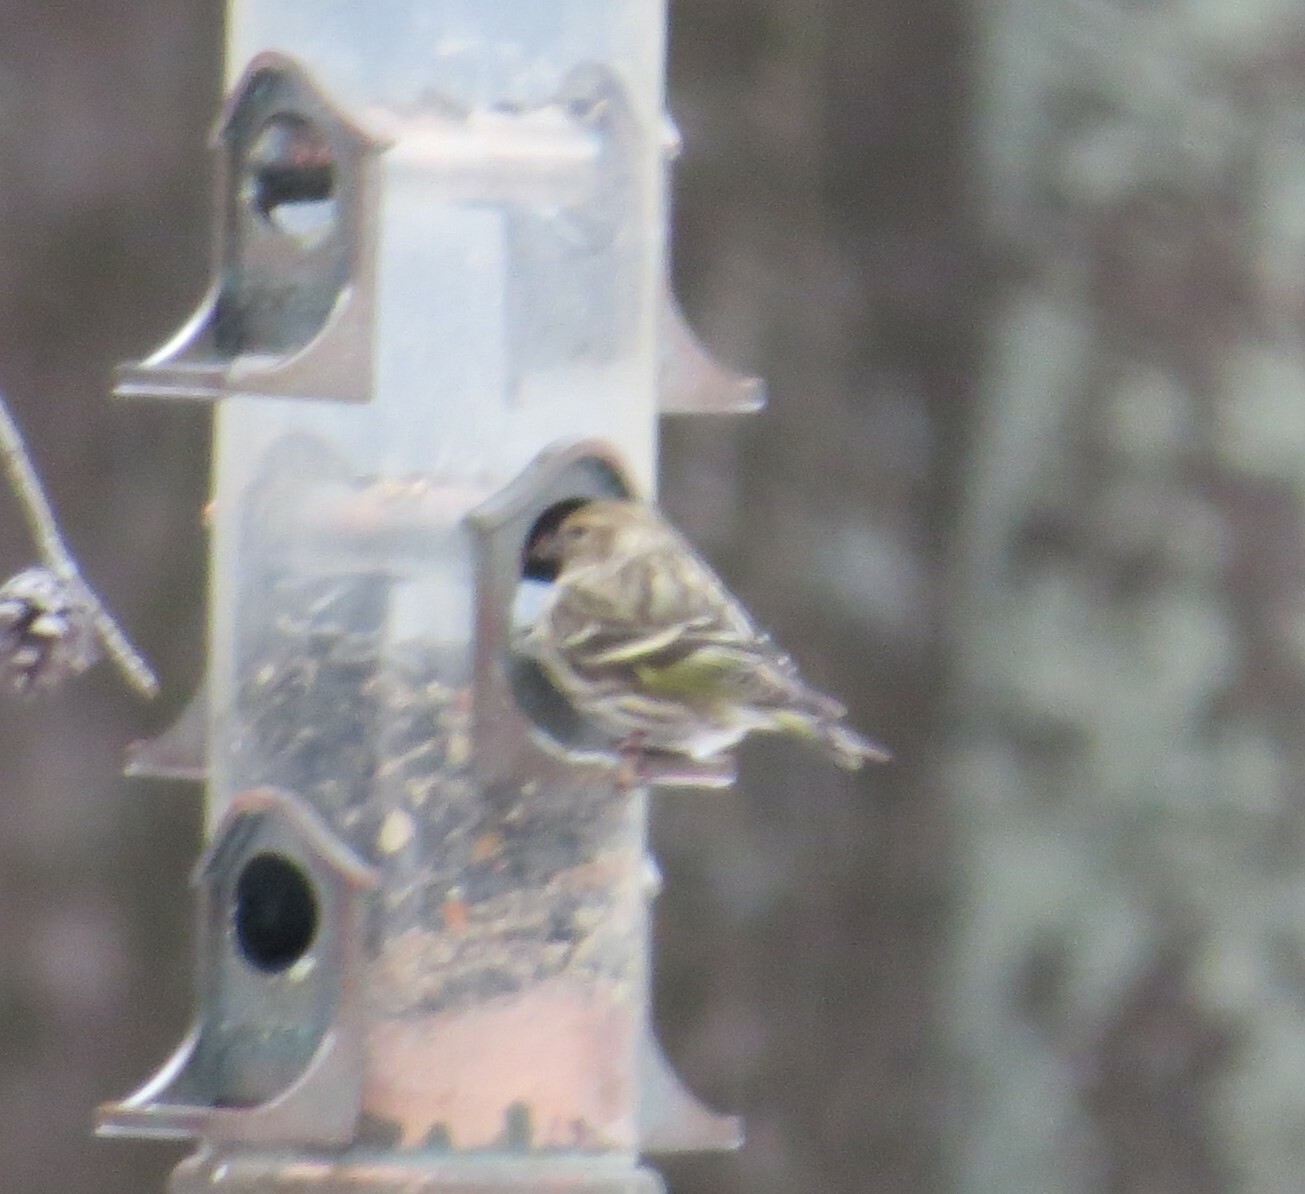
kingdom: Animalia
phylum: Chordata
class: Aves
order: Passeriformes
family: Fringillidae
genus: Spinus
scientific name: Spinus pinus
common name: Pine siskin
